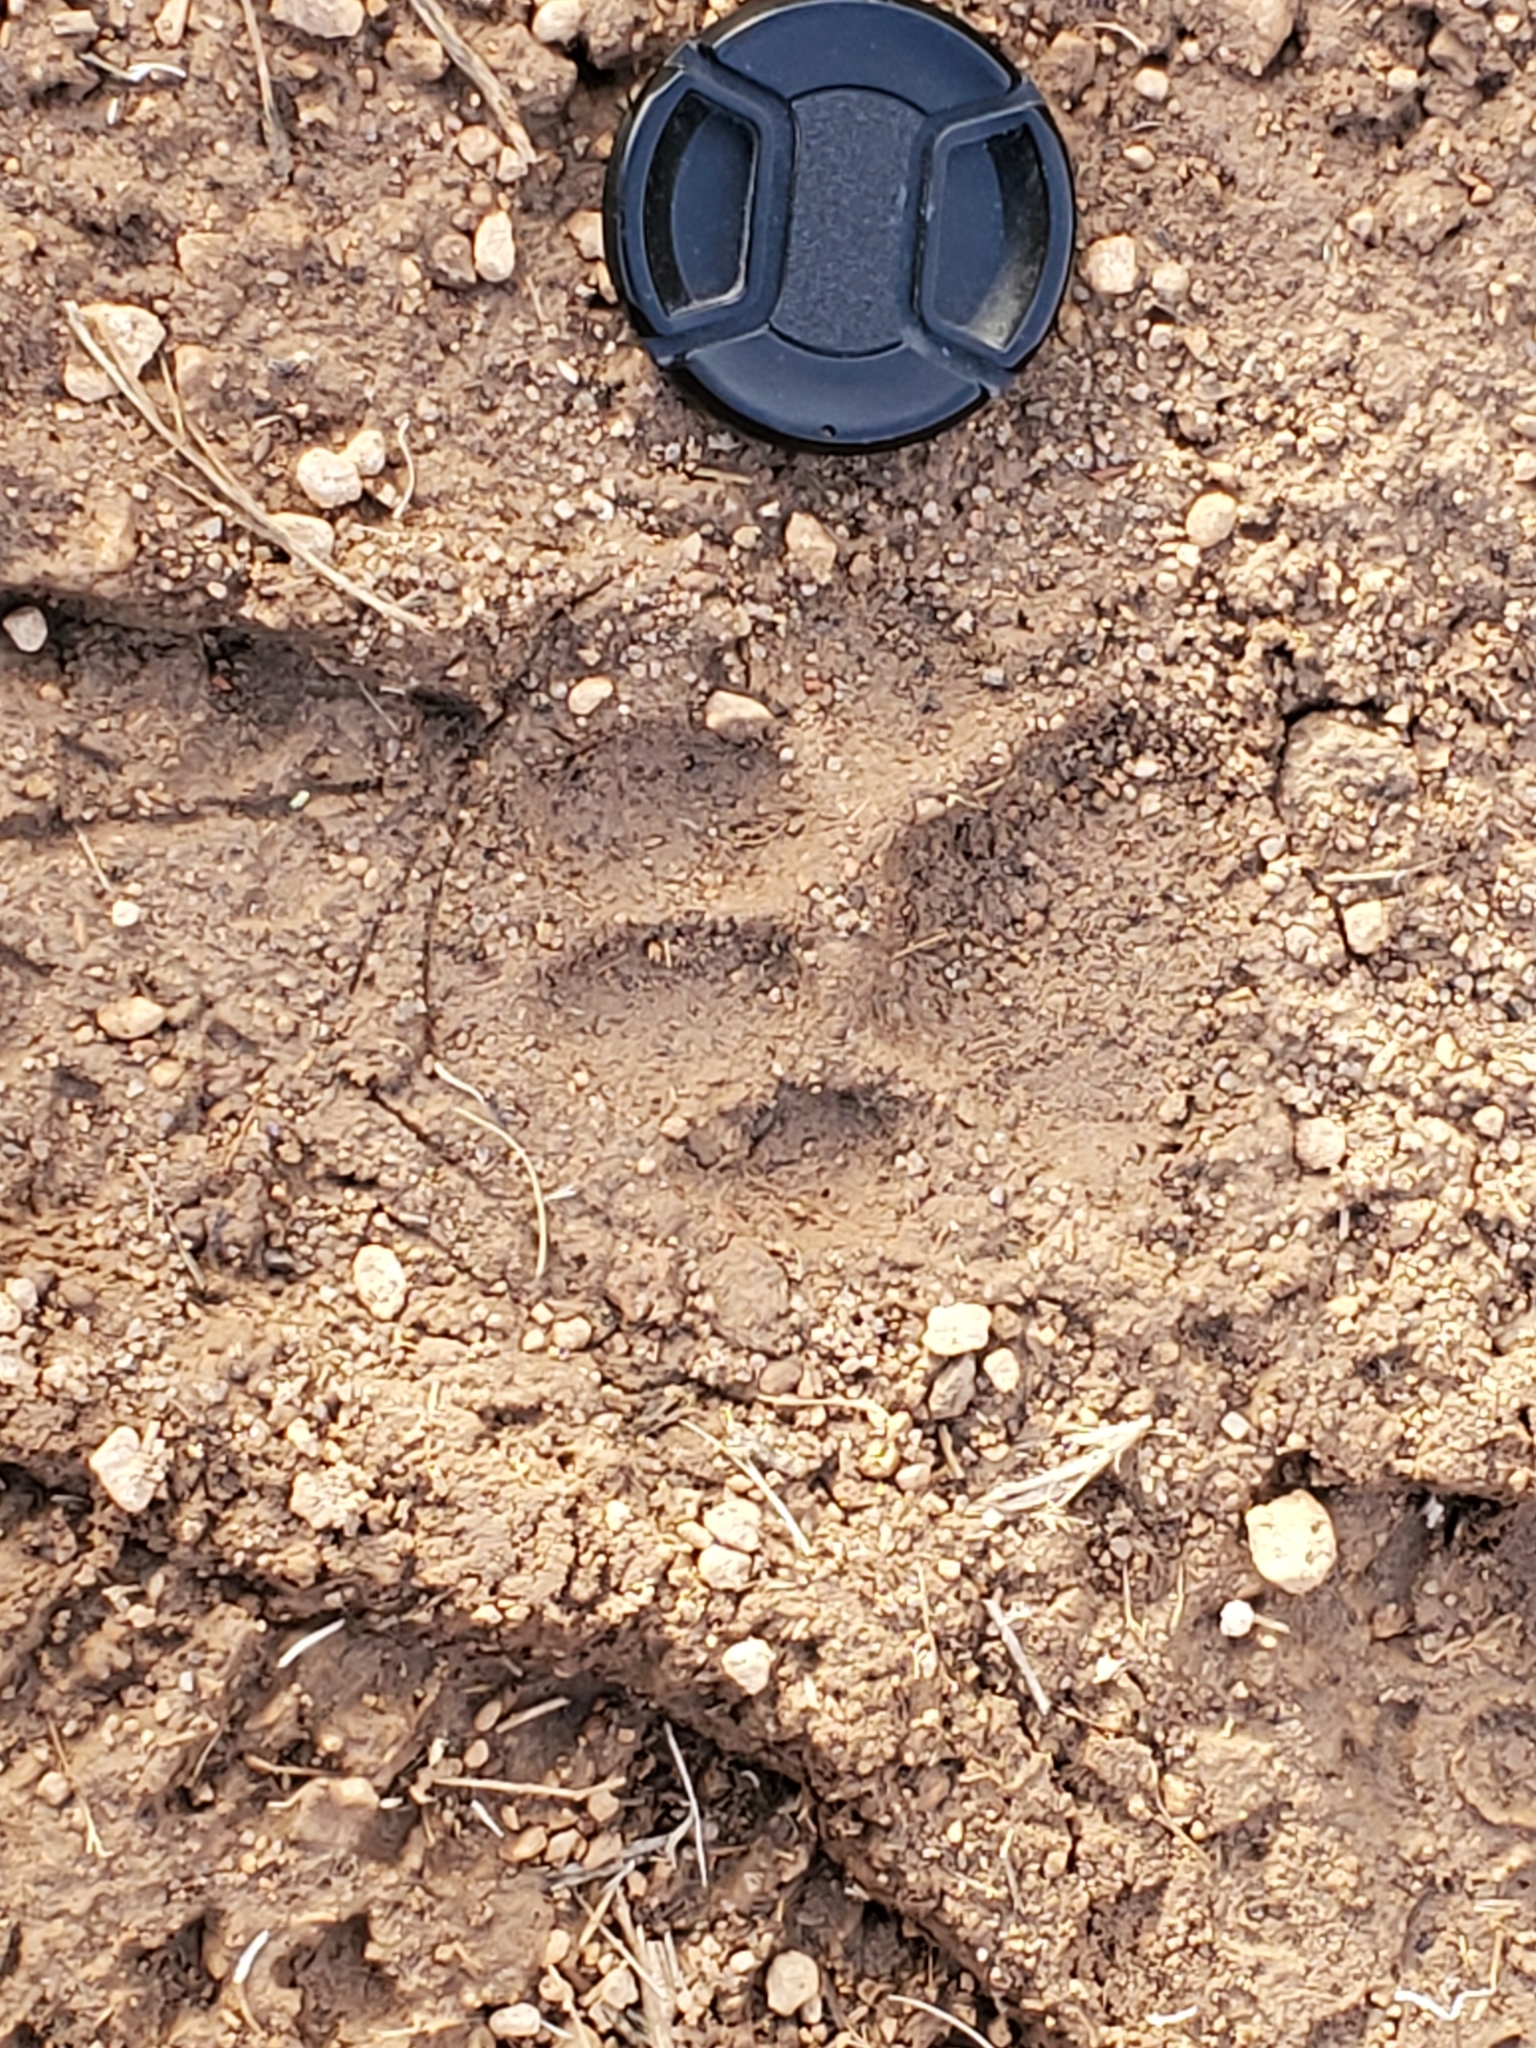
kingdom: Animalia
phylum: Chordata
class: Mammalia
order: Carnivora
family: Felidae
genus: Puma
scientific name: Puma concolor
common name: Puma
